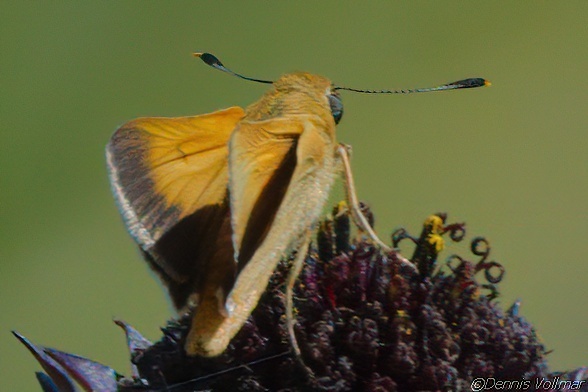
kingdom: Animalia
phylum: Arthropoda
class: Insecta
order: Lepidoptera
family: Hesperiidae
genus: Atrytone
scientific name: Atrytone arogos
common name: Arogos skipper
